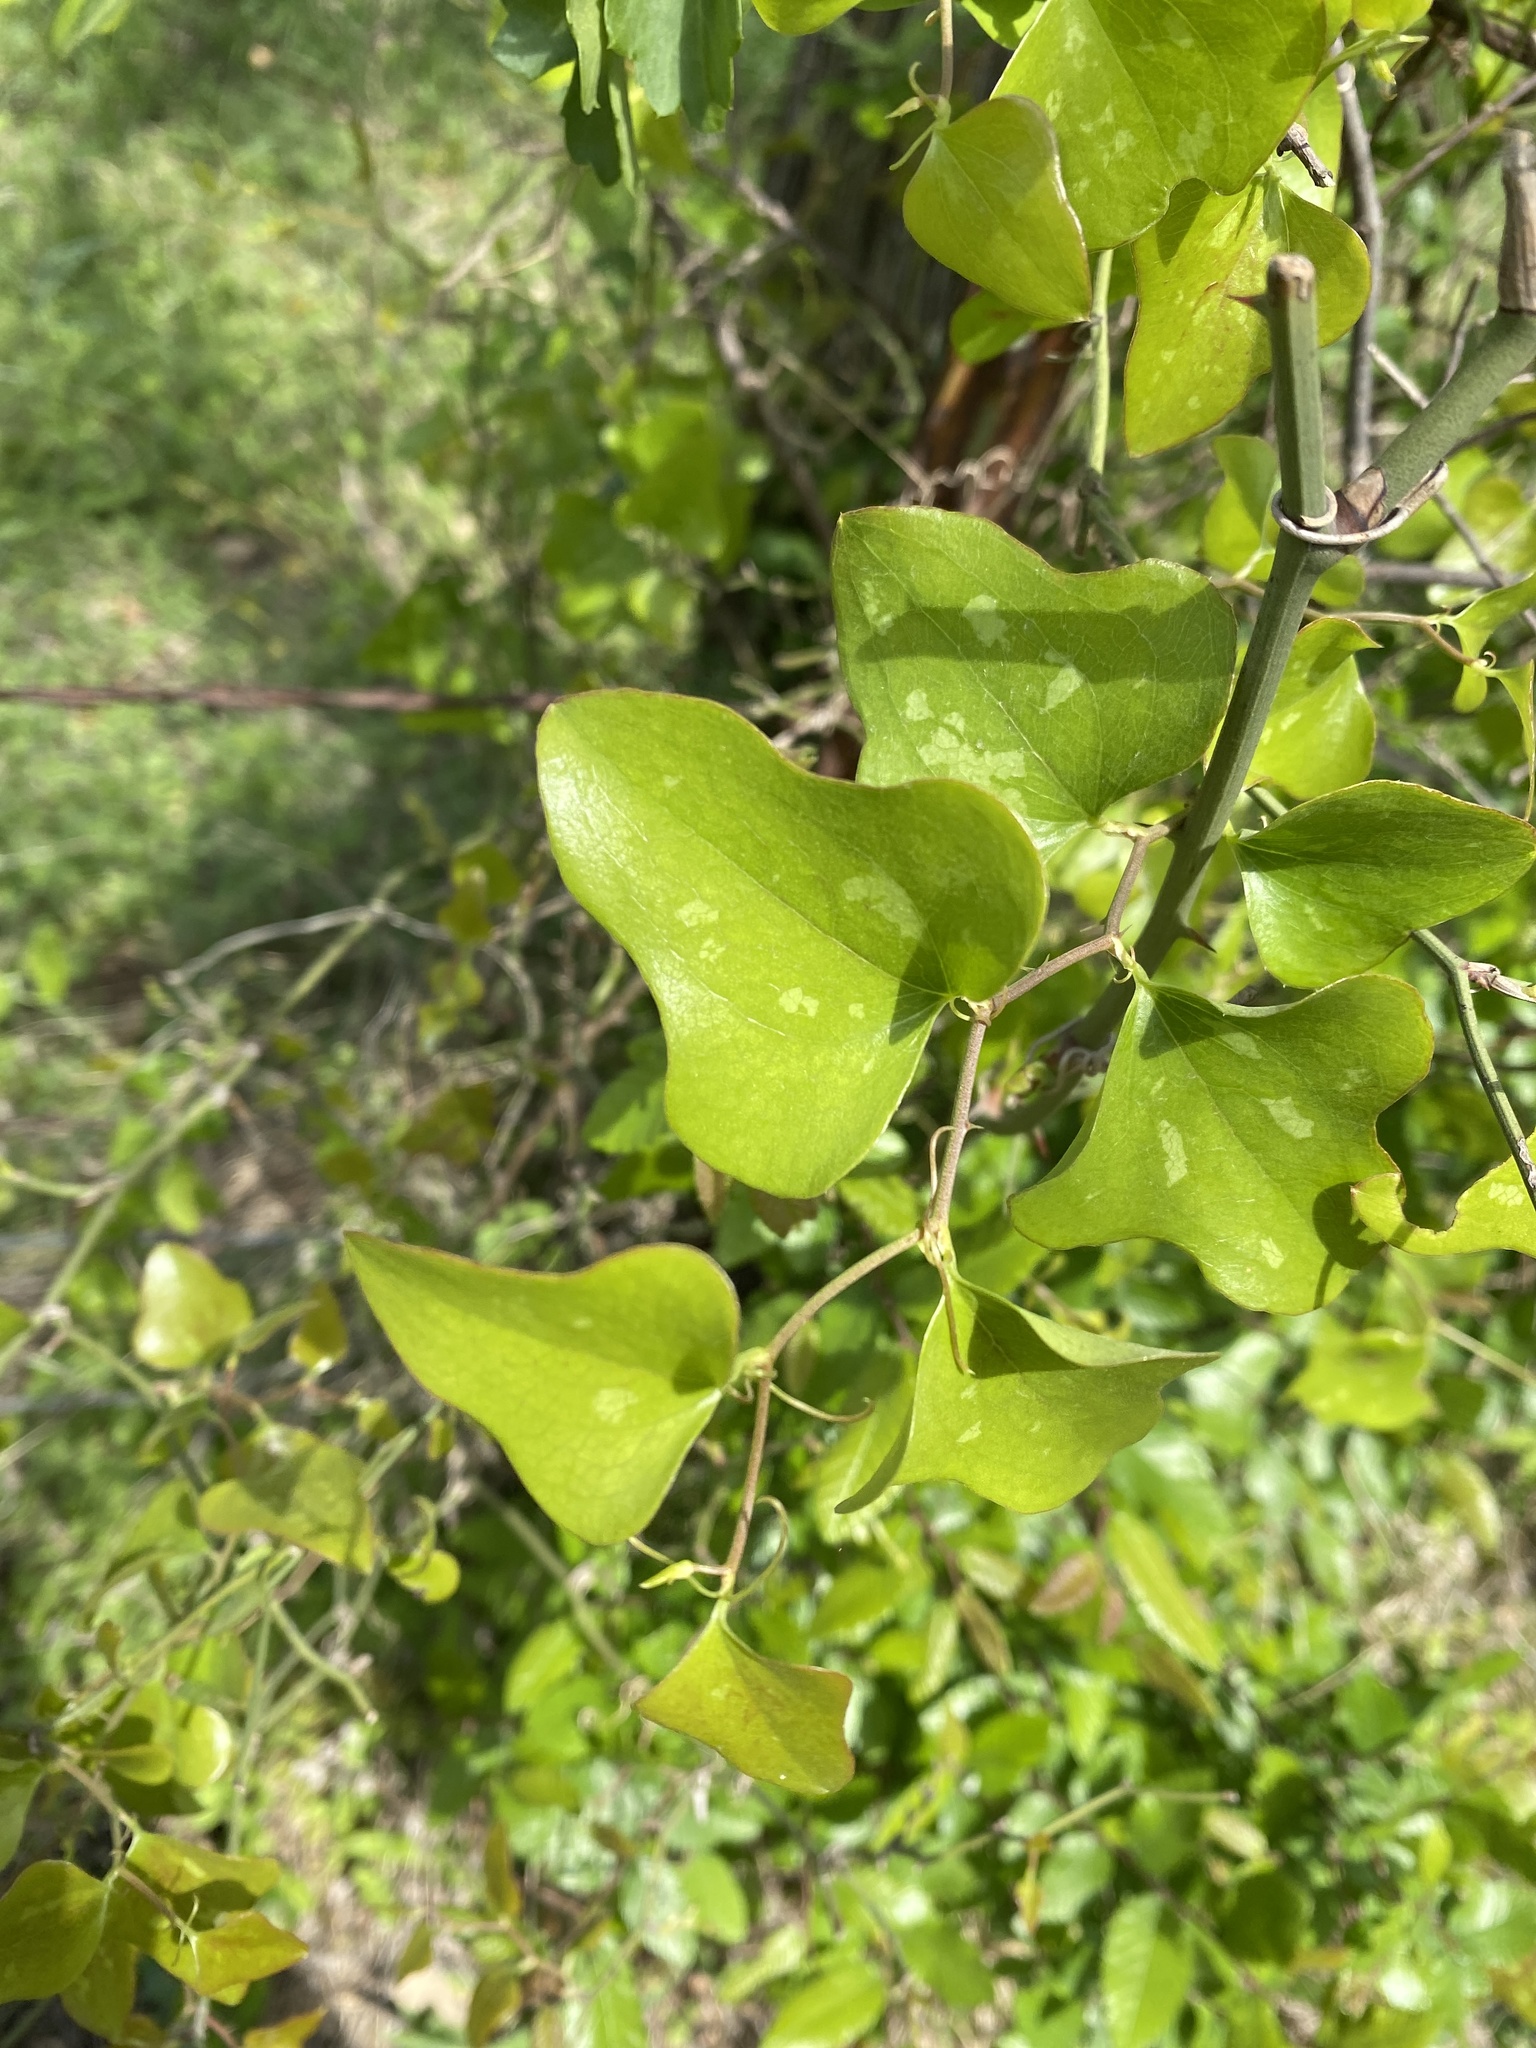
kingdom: Plantae
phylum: Tracheophyta
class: Liliopsida
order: Liliales
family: Smilacaceae
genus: Smilax
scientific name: Smilax bona-nox
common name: Catbrier
